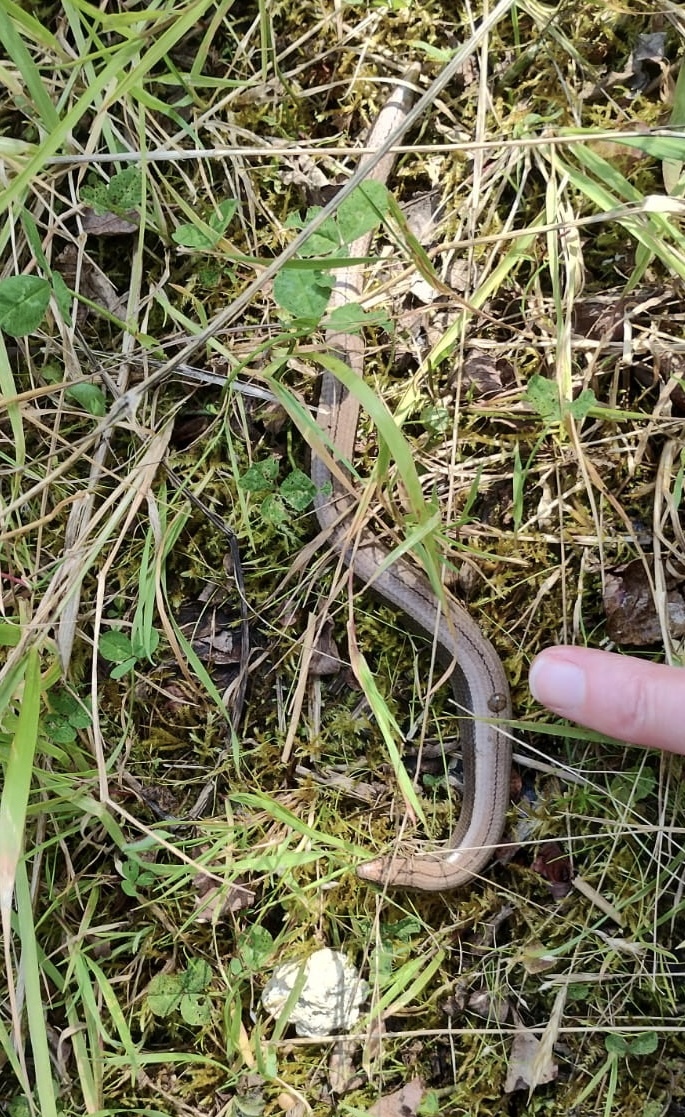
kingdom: Animalia
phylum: Chordata
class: Squamata
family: Anguidae
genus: Anguis
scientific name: Anguis fragilis
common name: Slow worm
